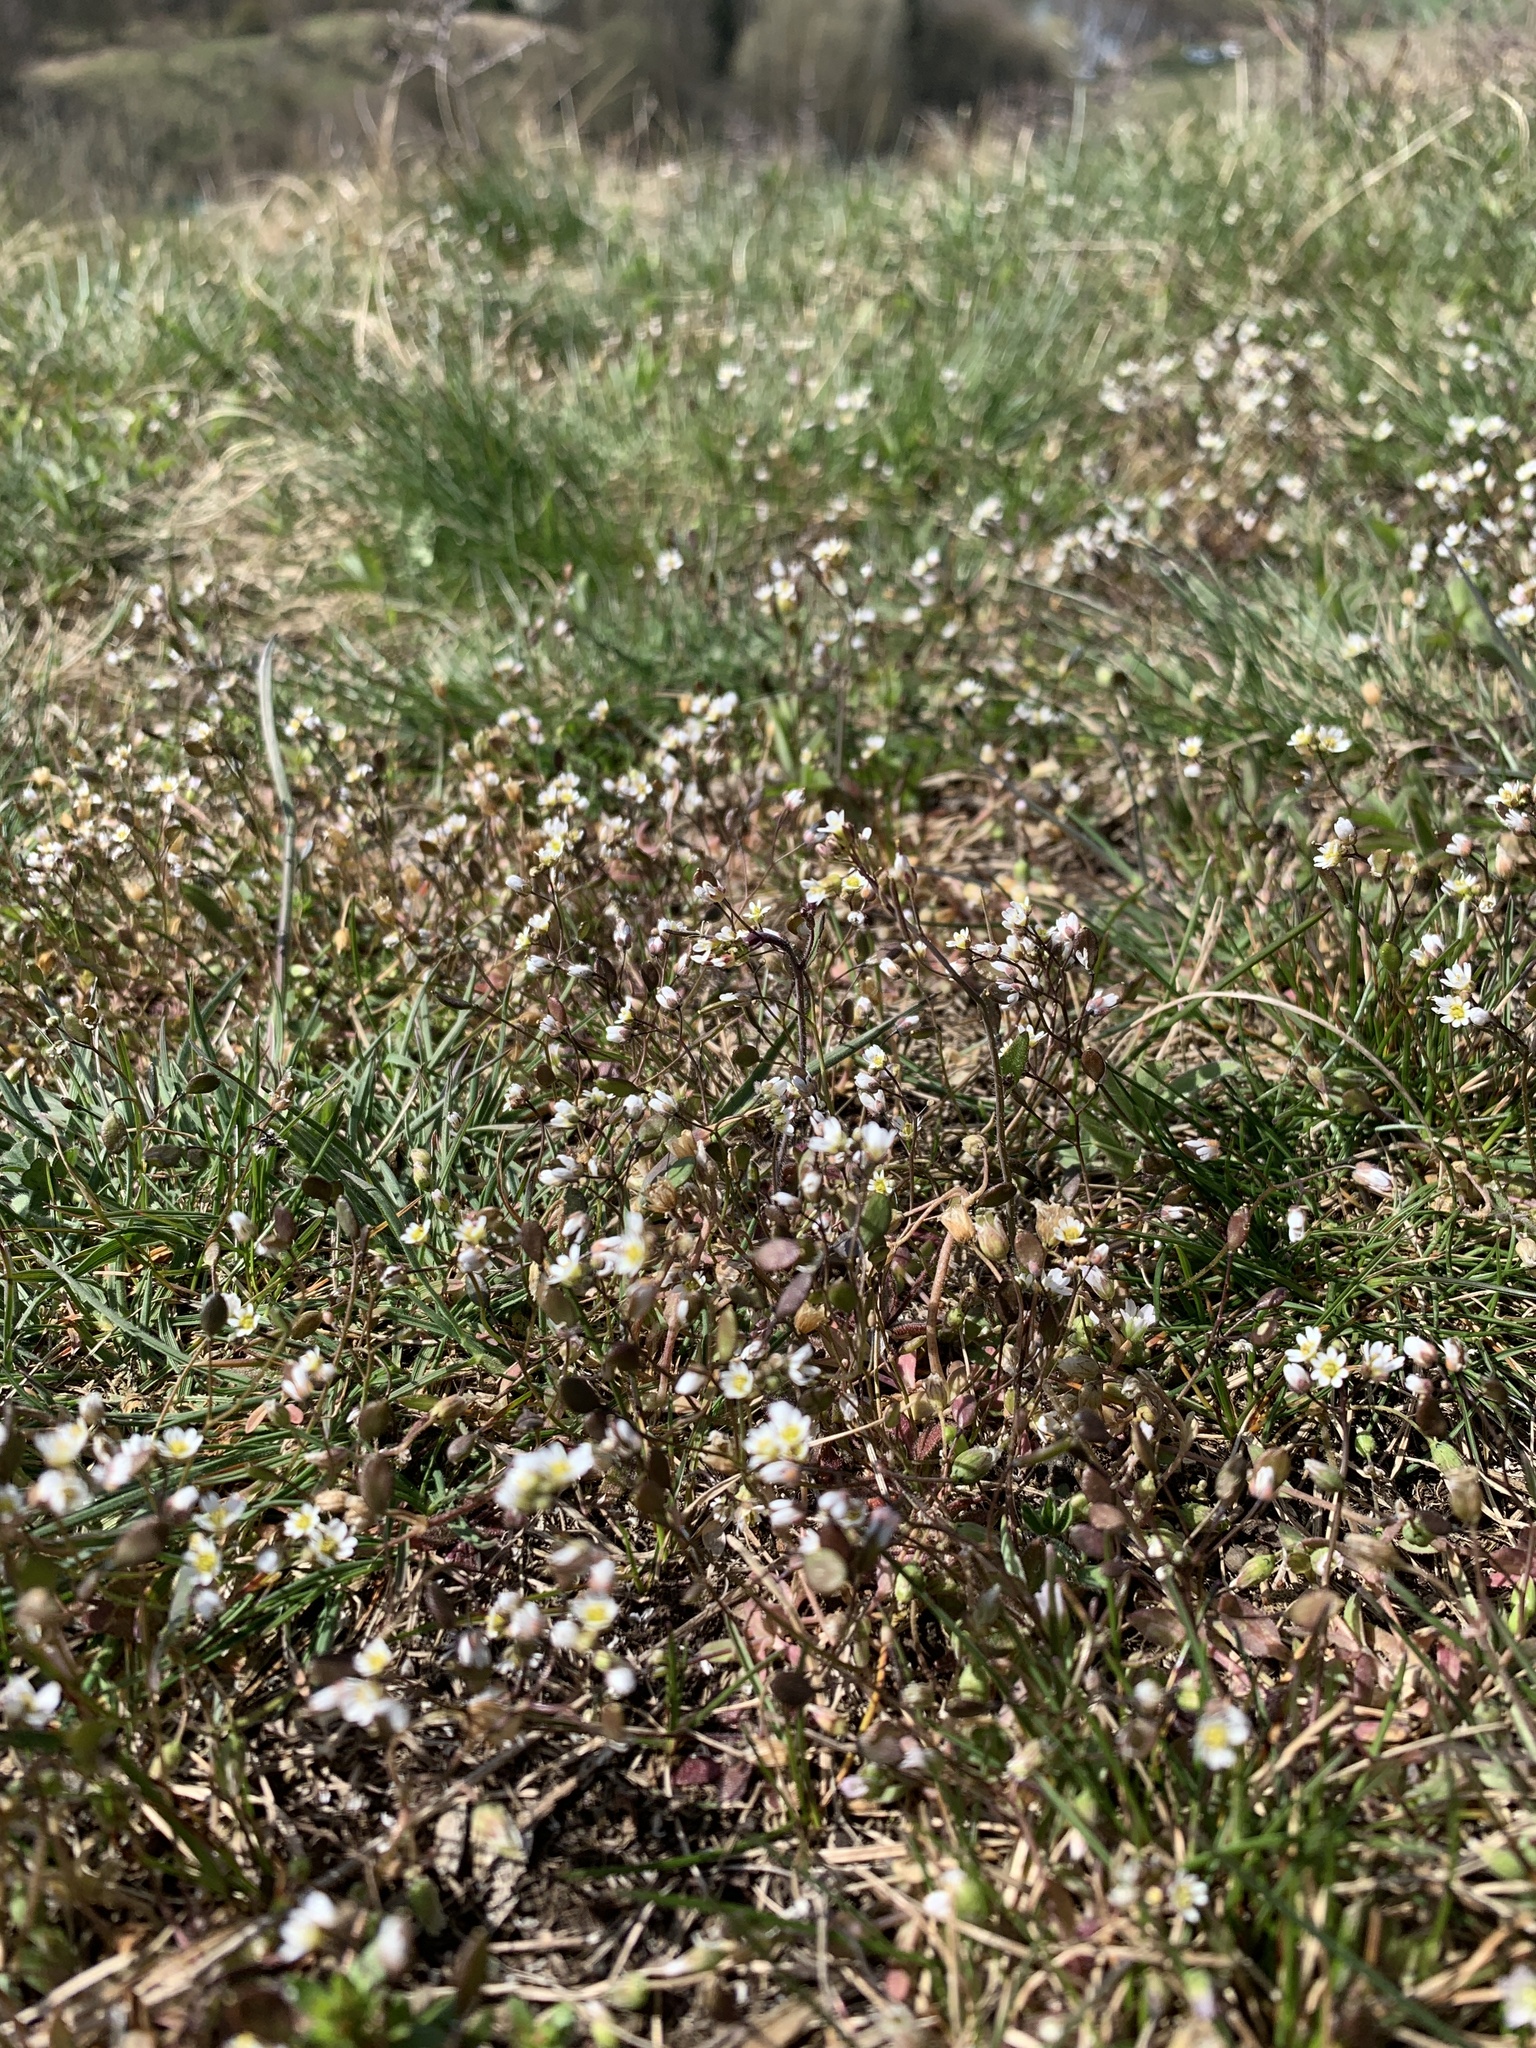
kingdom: Plantae
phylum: Tracheophyta
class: Magnoliopsida
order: Brassicales
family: Brassicaceae
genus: Draba
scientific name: Draba verna
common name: Spring draba
